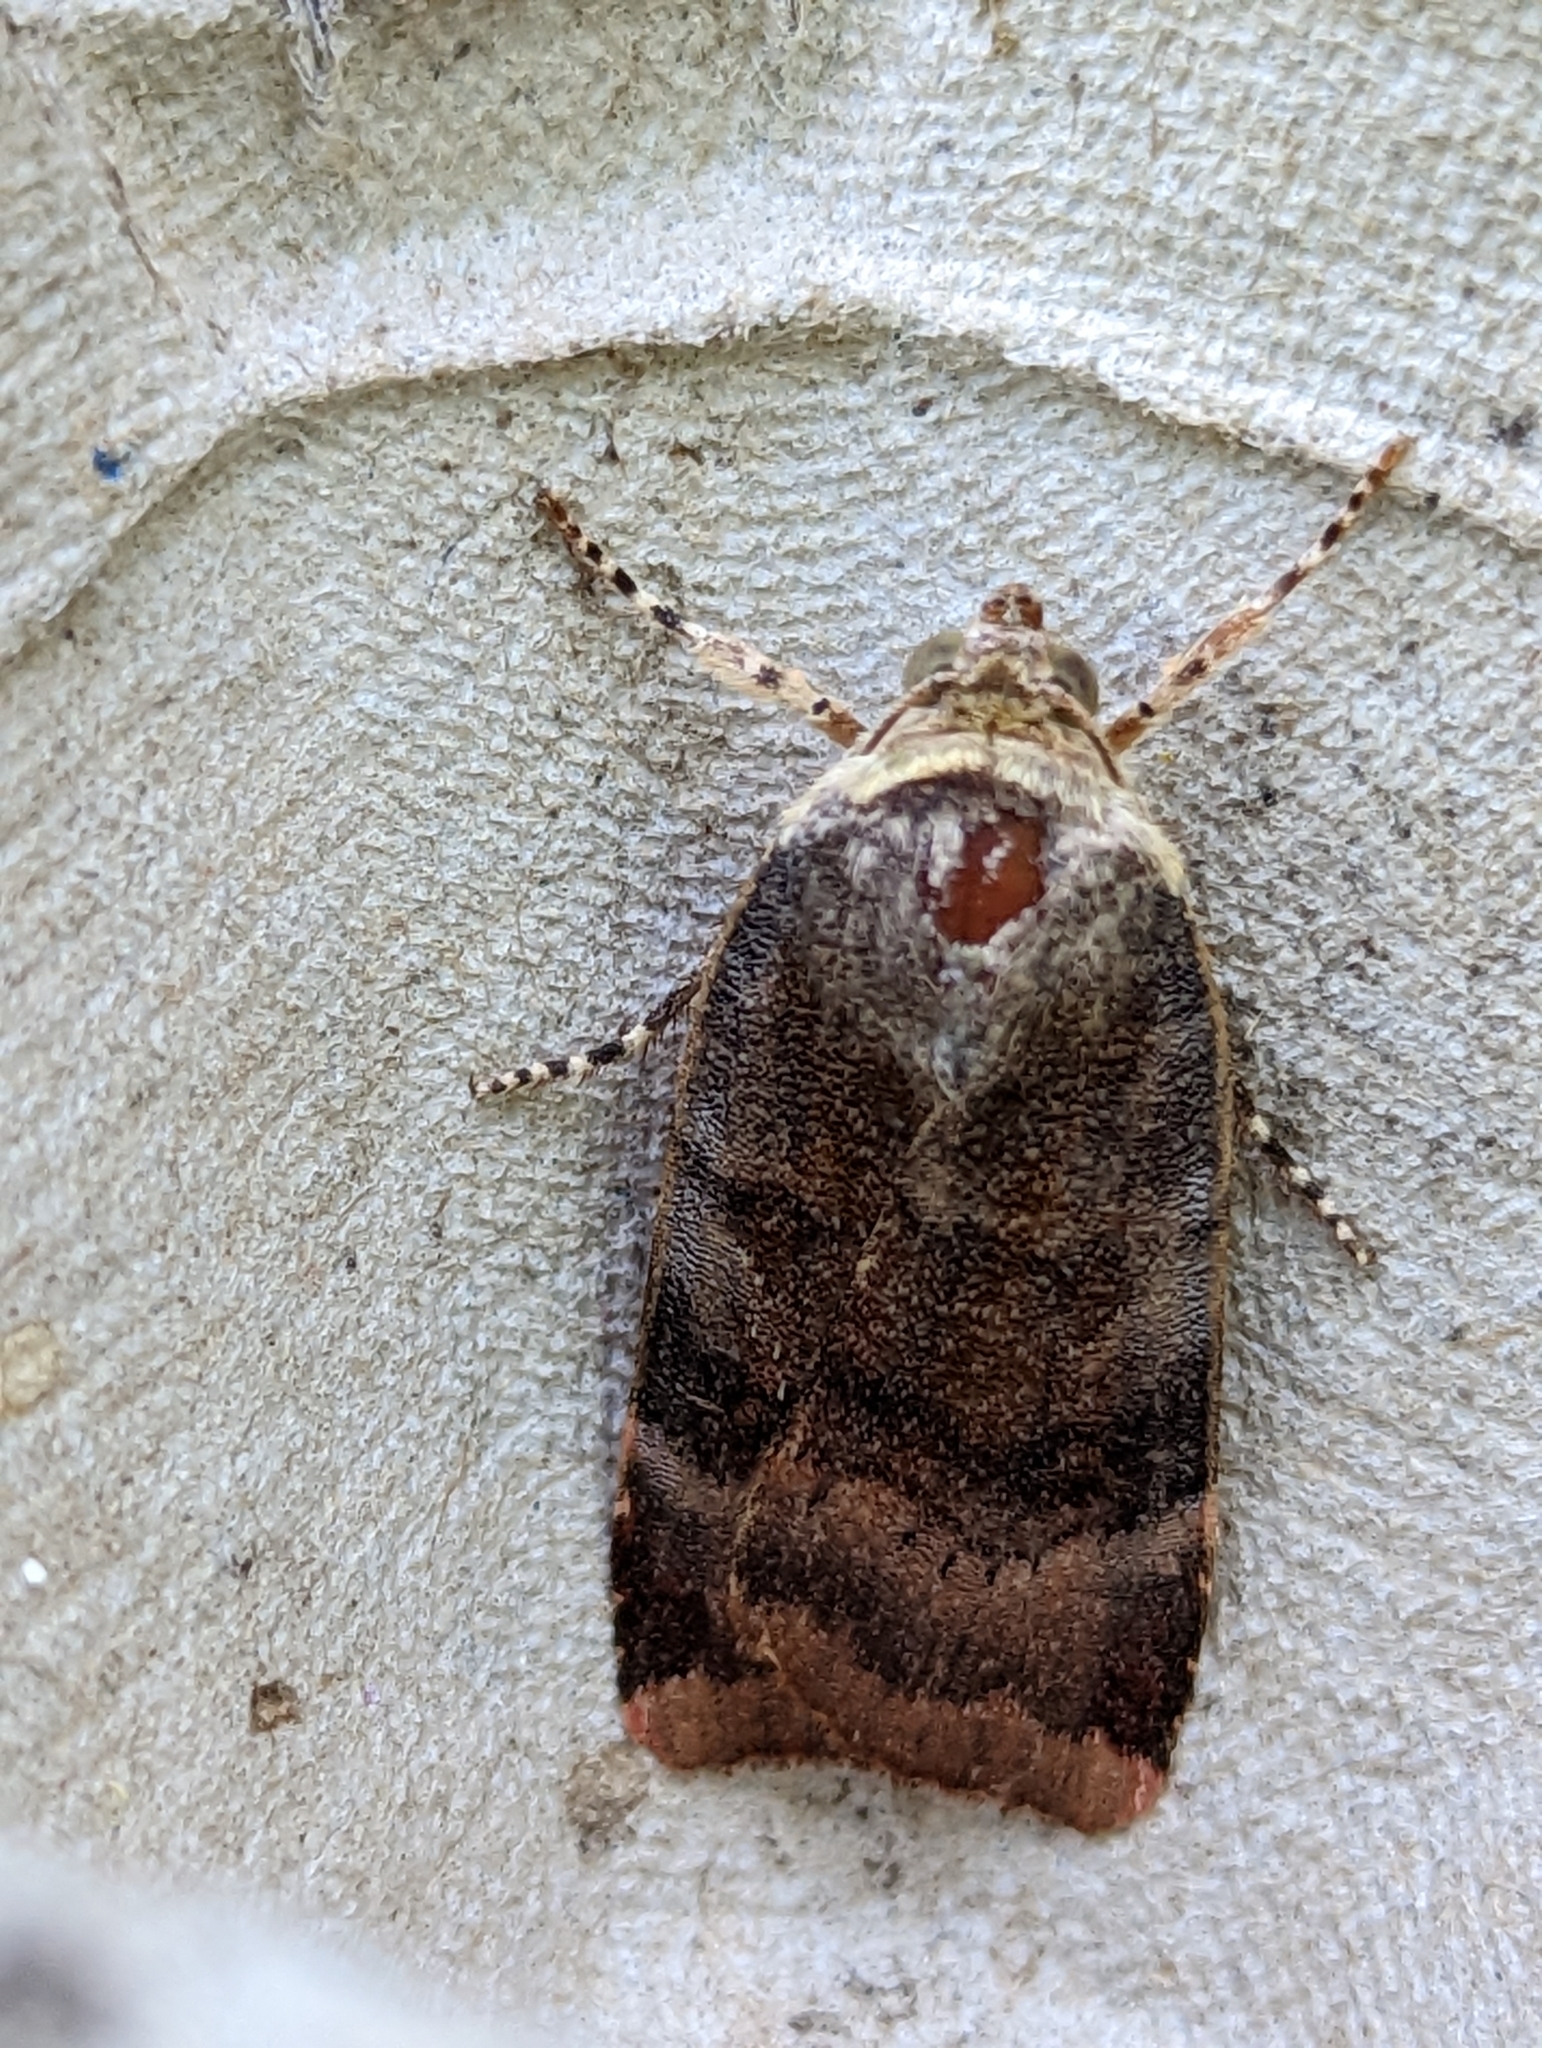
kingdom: Animalia
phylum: Arthropoda
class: Insecta
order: Lepidoptera
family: Noctuidae
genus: Noctua
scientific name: Noctua janthe
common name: Lesser broad-bordered yellow underwing
